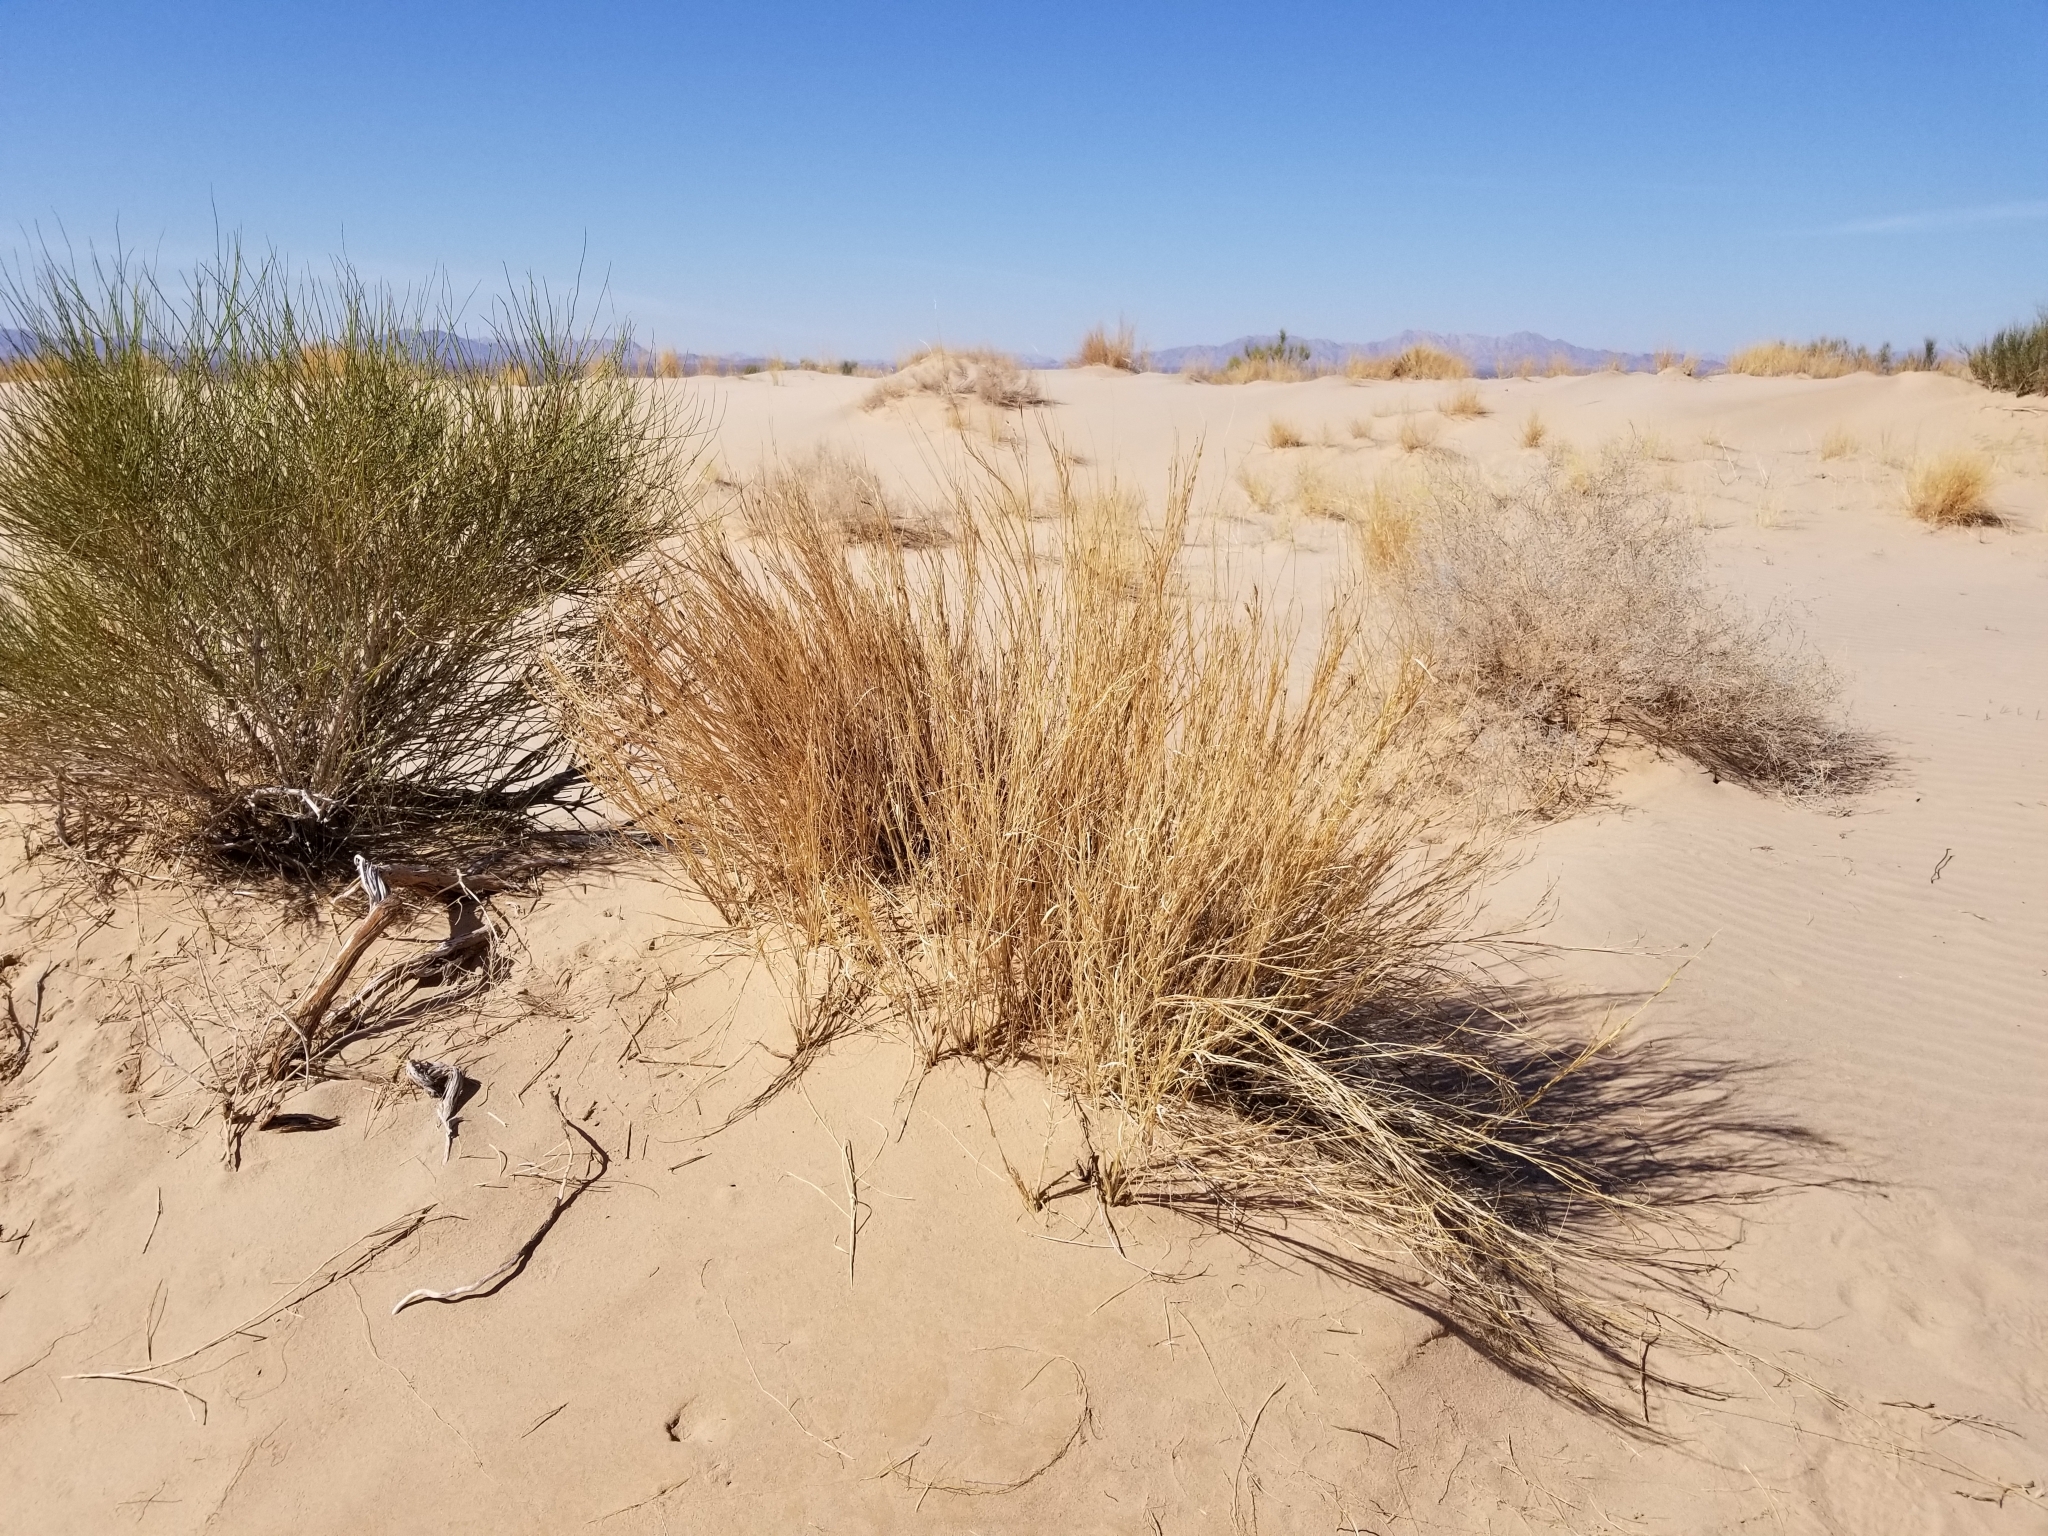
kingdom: Plantae
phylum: Tracheophyta
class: Liliopsida
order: Poales
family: Poaceae
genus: Hilaria
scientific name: Hilaria rigida
